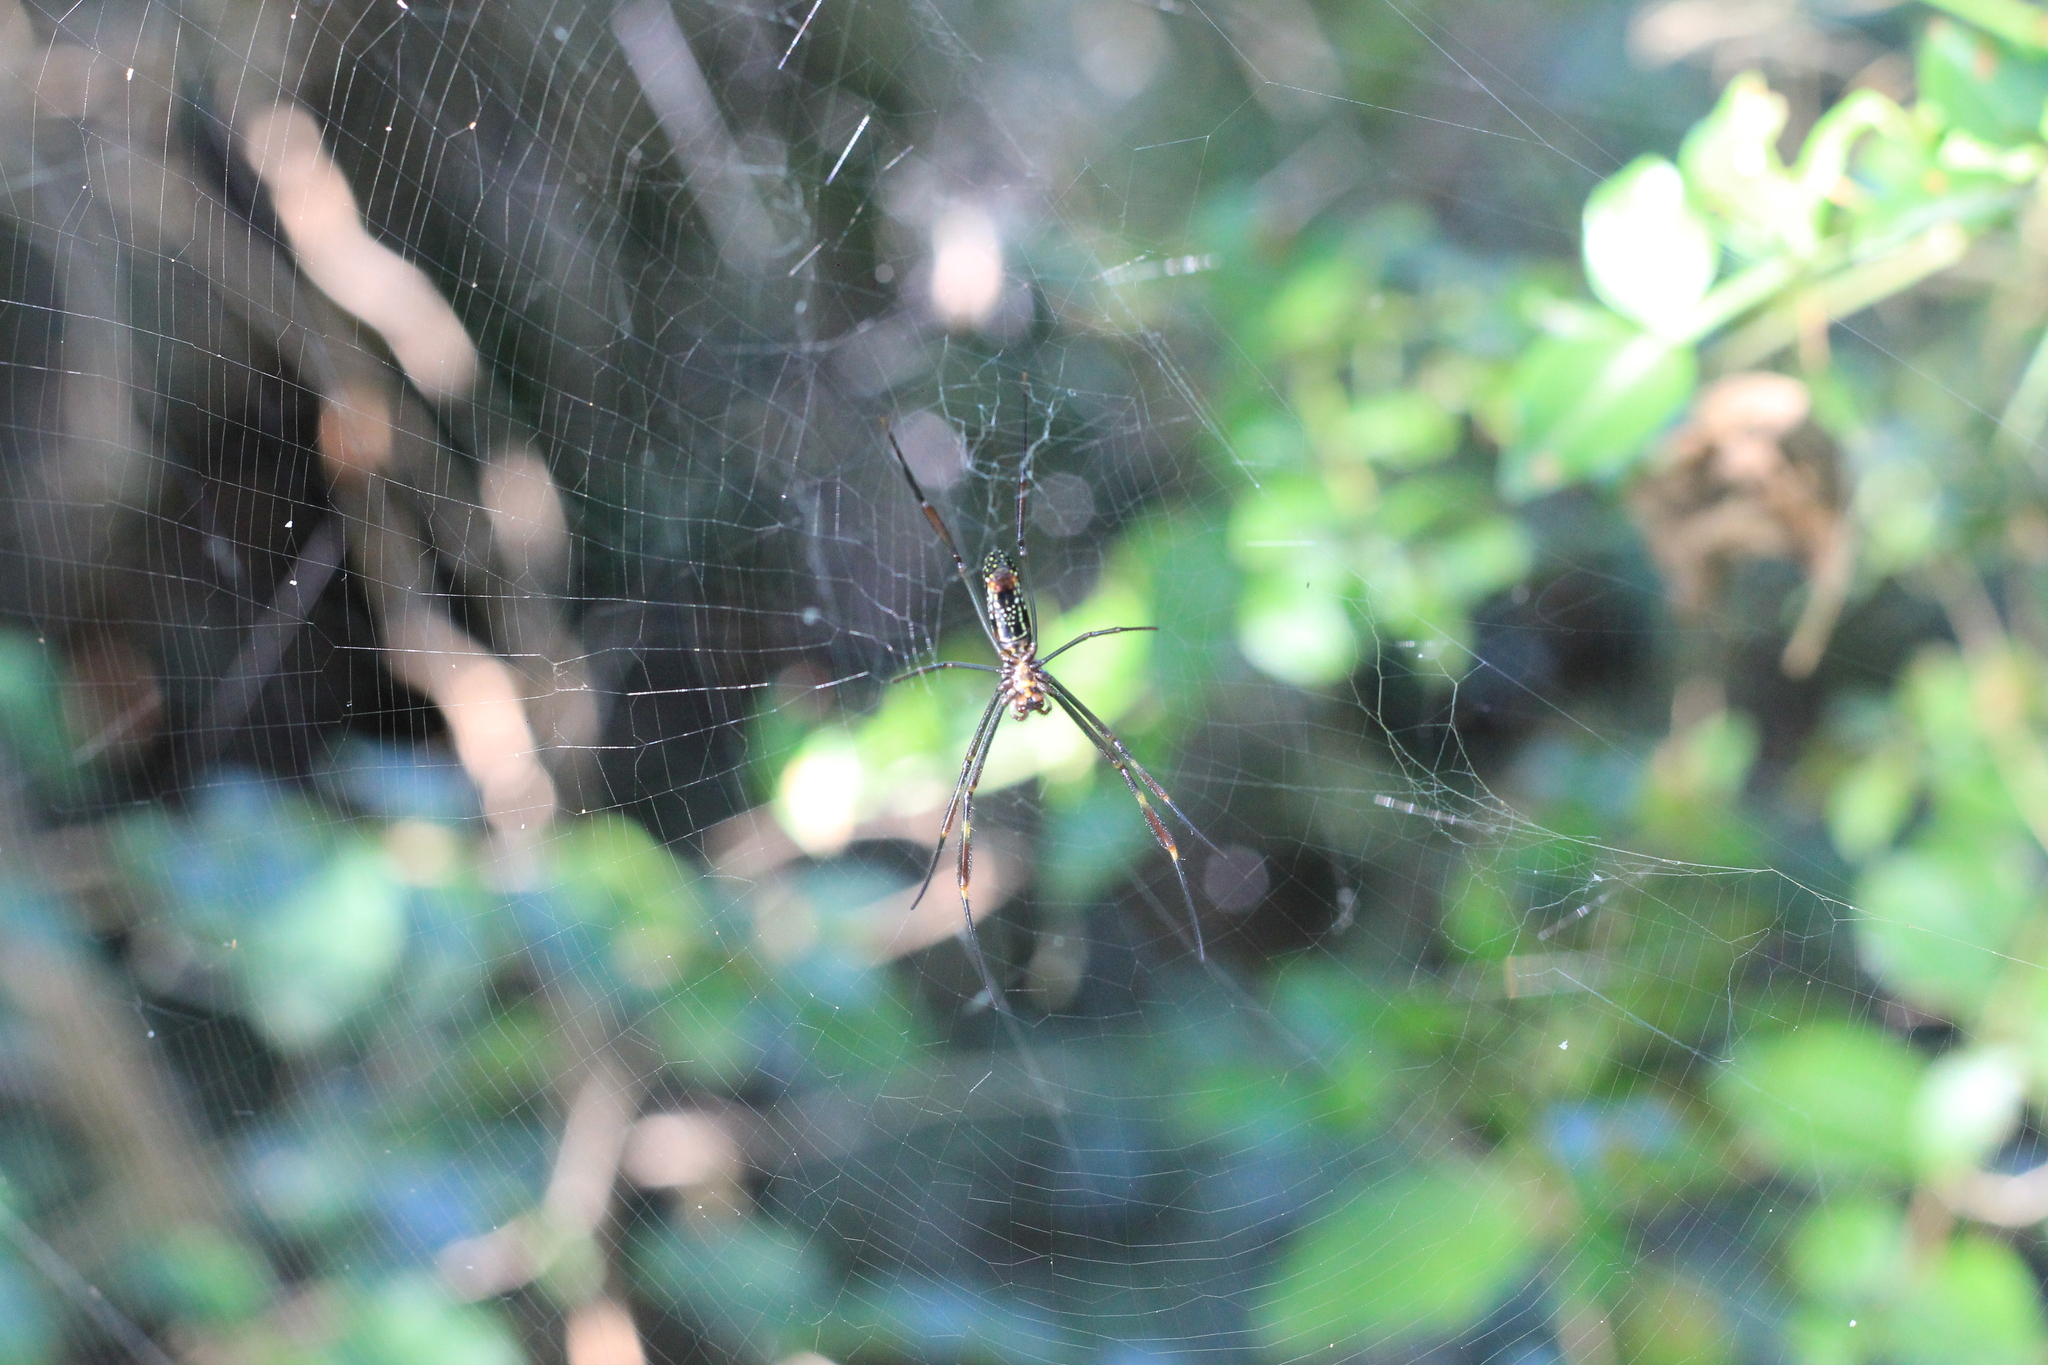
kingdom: Animalia
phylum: Arthropoda
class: Arachnida
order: Araneae
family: Araneidae
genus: Trichonephila
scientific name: Trichonephila clavipes
